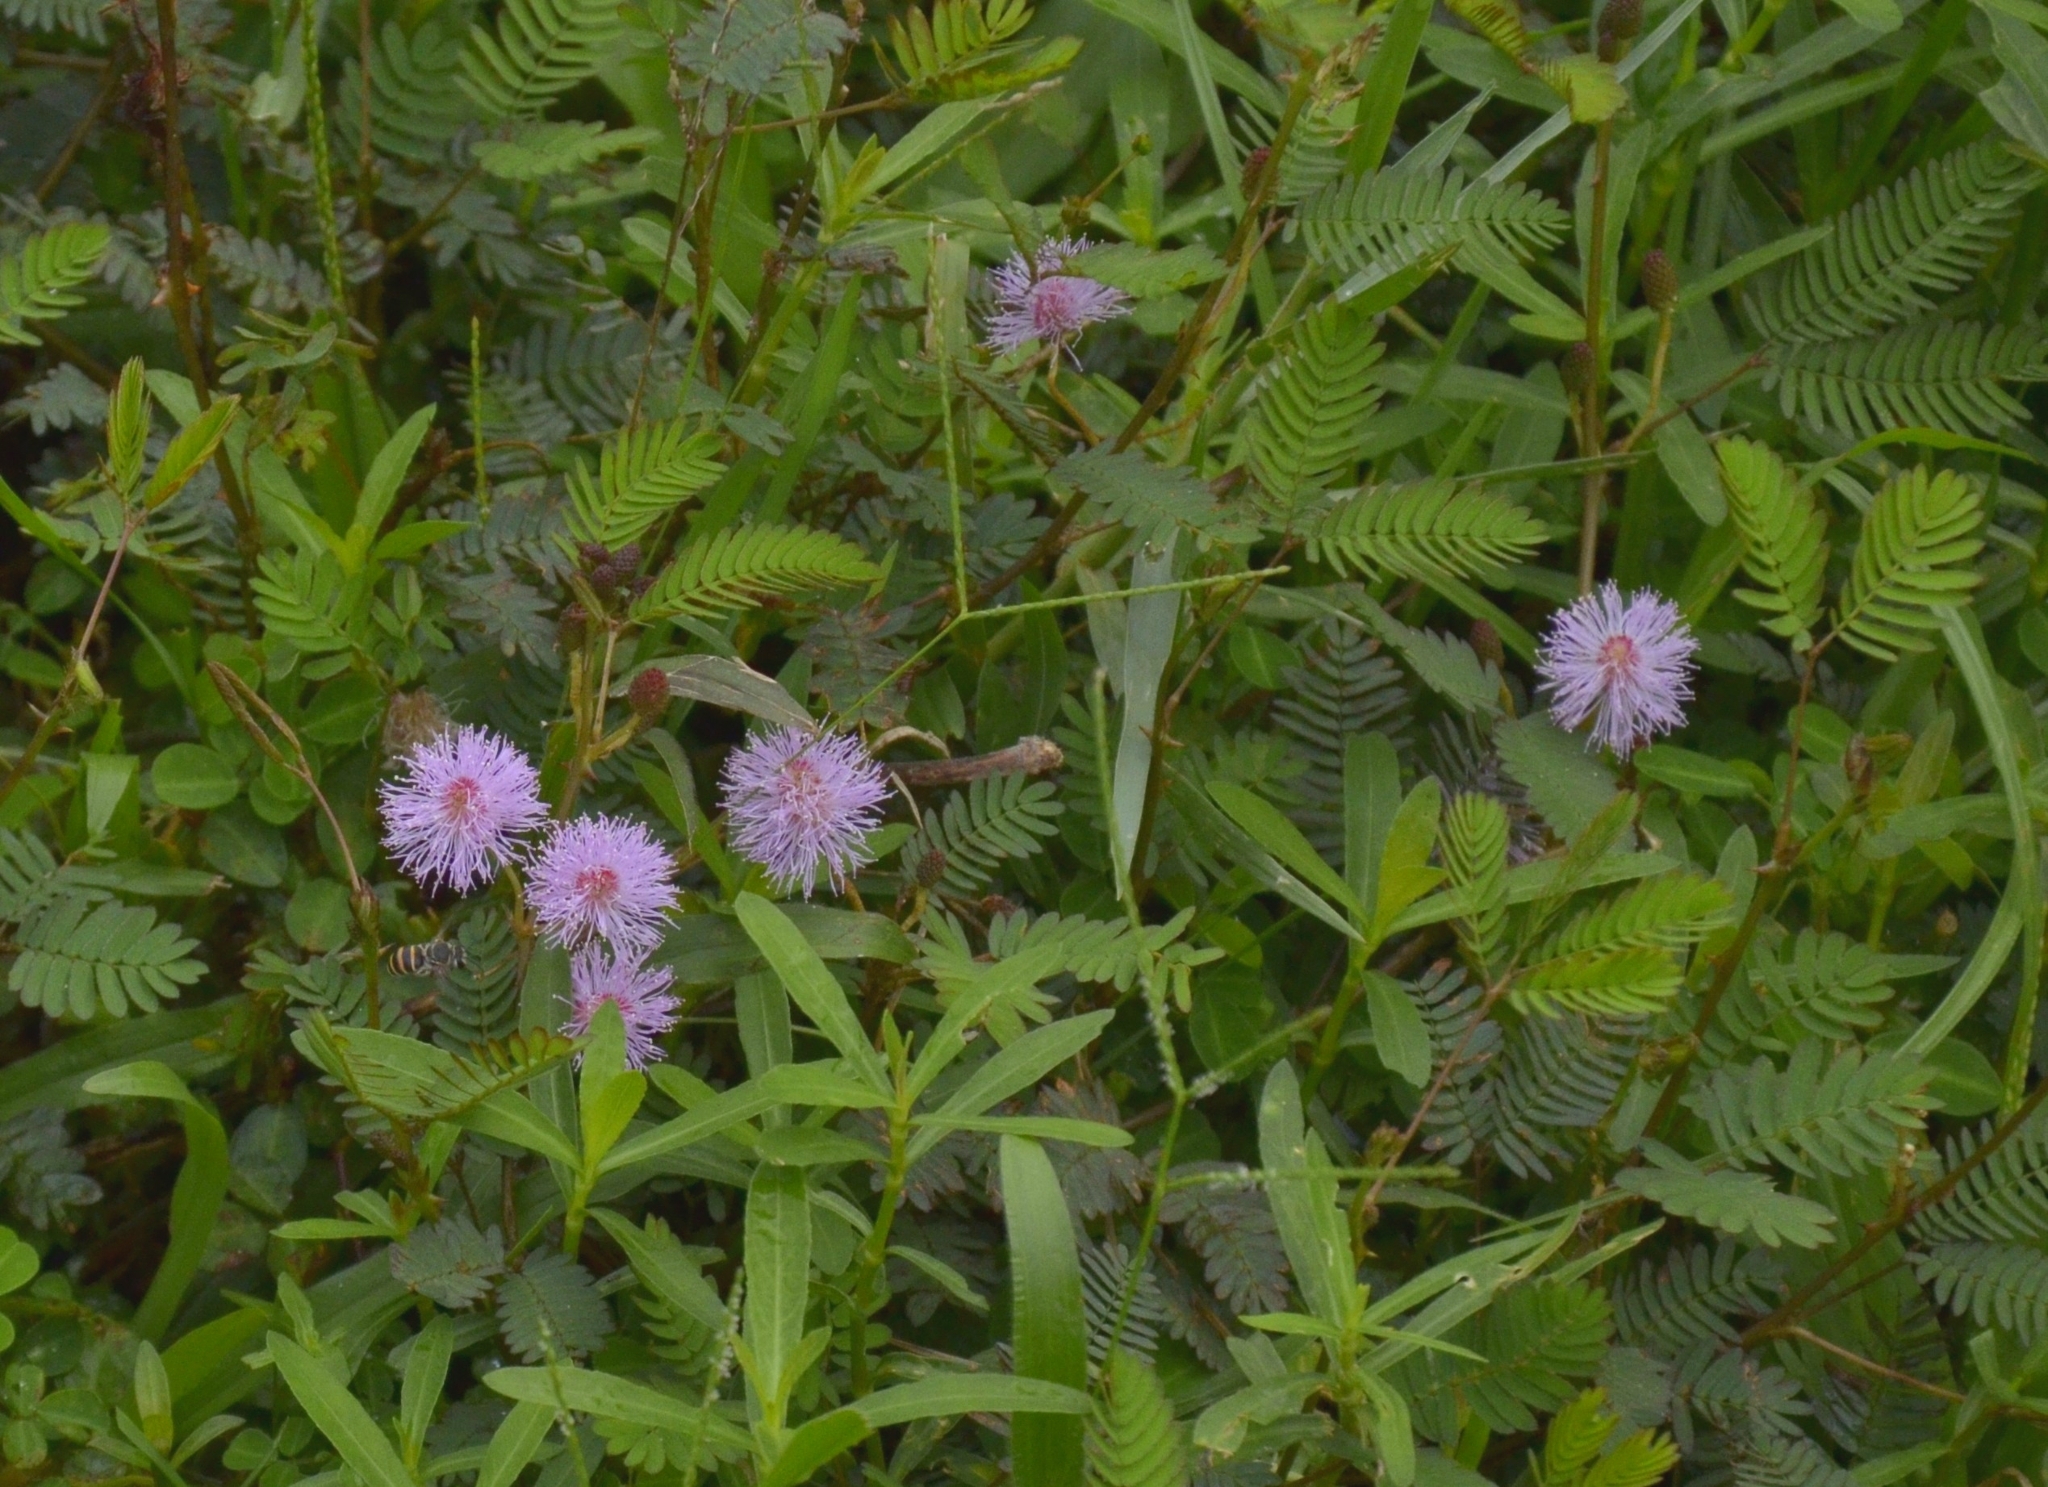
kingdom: Plantae
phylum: Tracheophyta
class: Magnoliopsida
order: Fabales
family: Fabaceae
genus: Mimosa
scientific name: Mimosa pudica
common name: Sensitive plant
